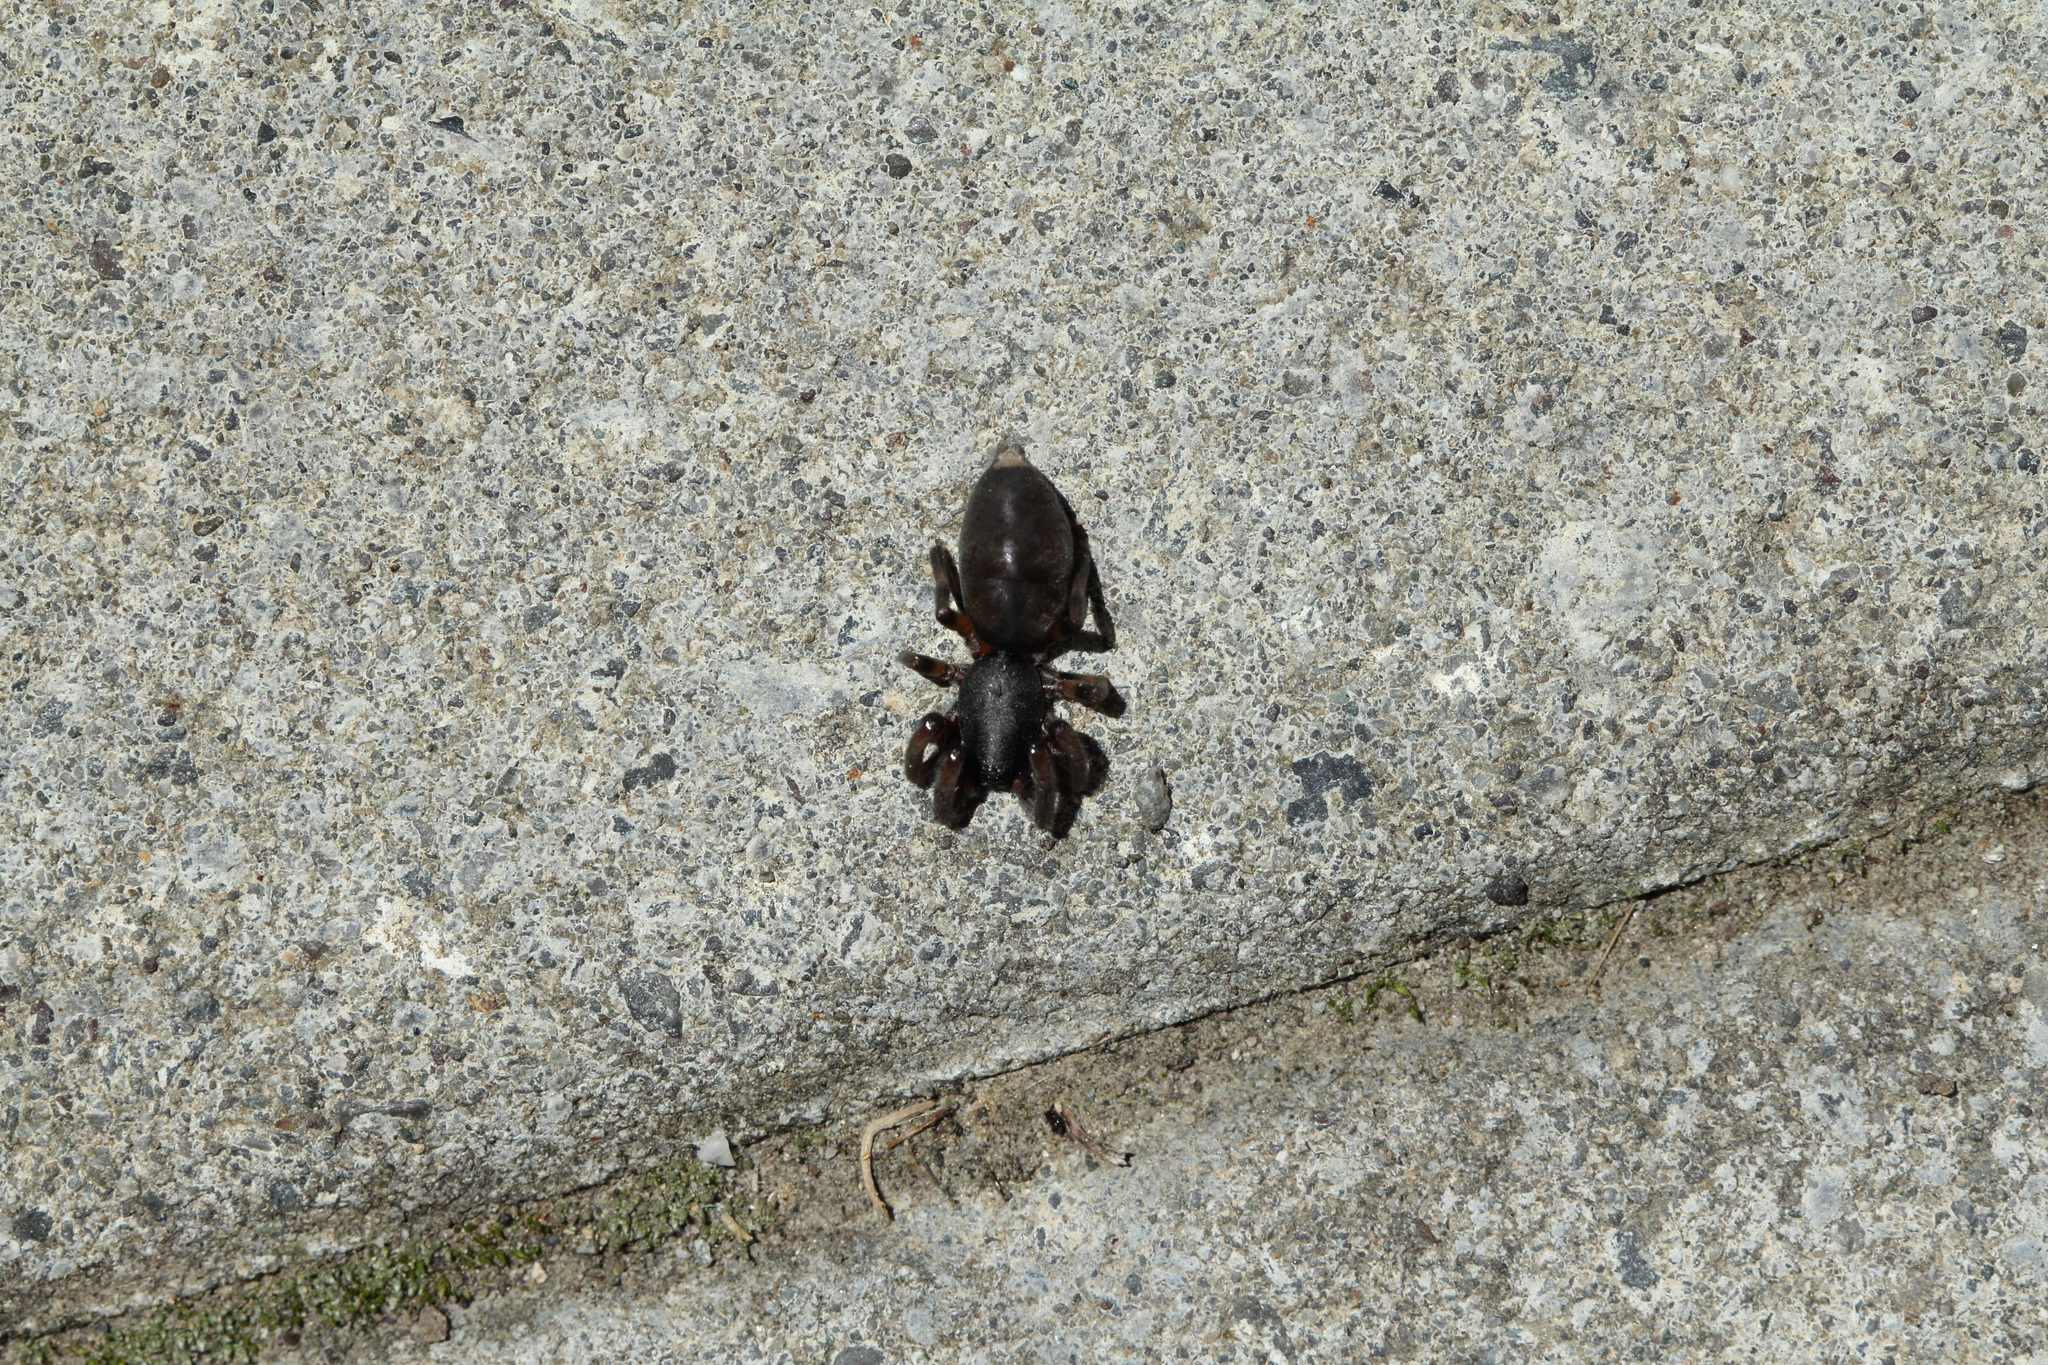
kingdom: Animalia
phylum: Arthropoda
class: Arachnida
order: Araneae
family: Lamponidae
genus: Lampona
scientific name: Lampona murina
